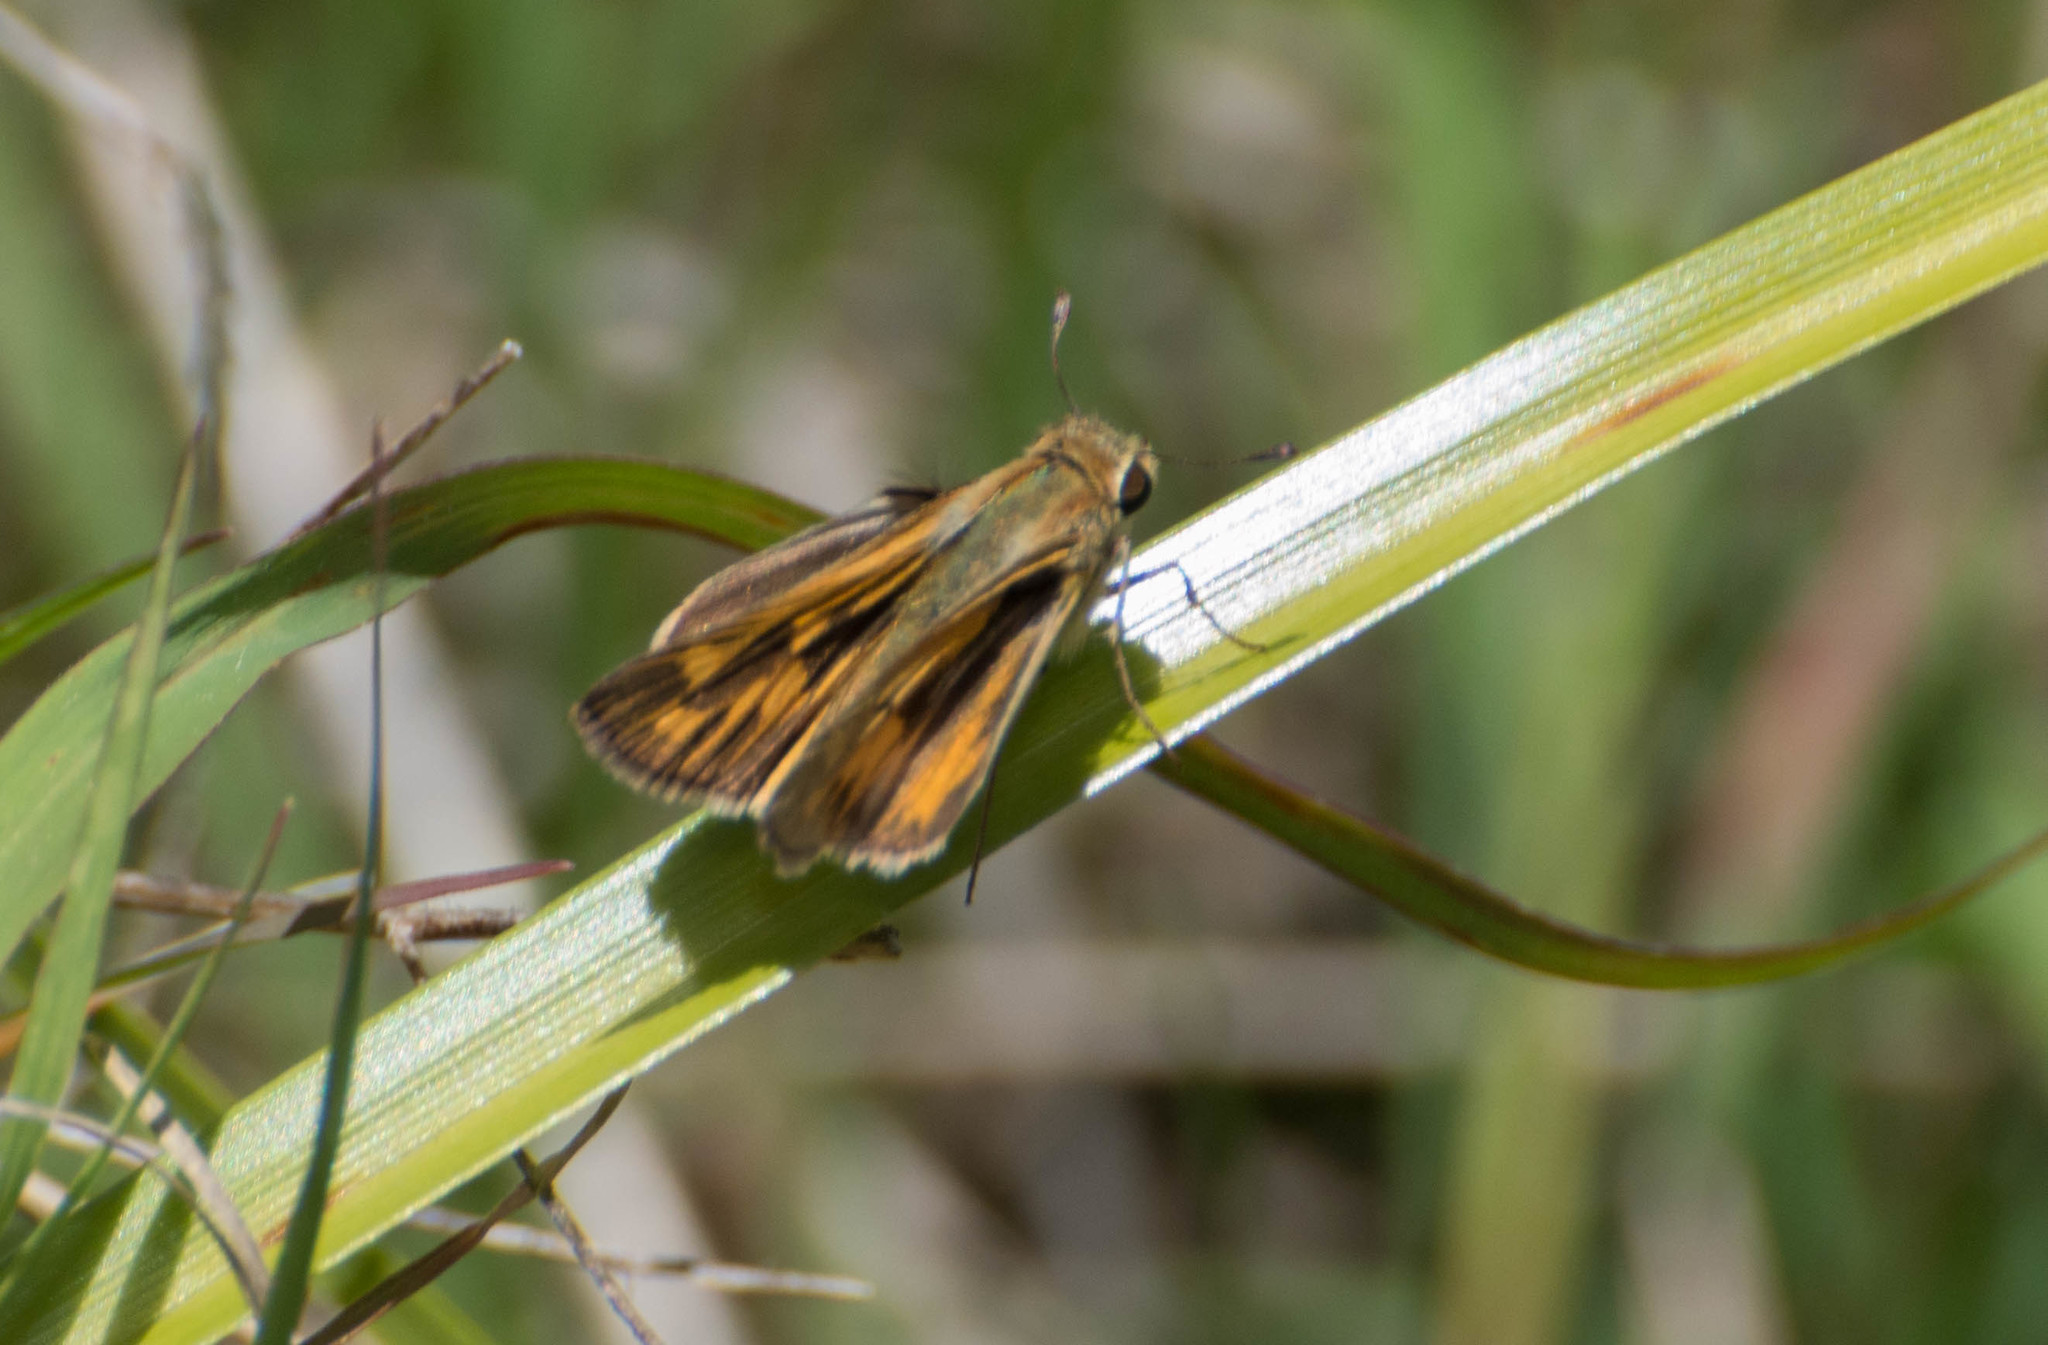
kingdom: Animalia
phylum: Arthropoda
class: Insecta
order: Lepidoptera
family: Hesperiidae
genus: Hylephila
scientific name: Hylephila phyleus
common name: Fiery skipper
